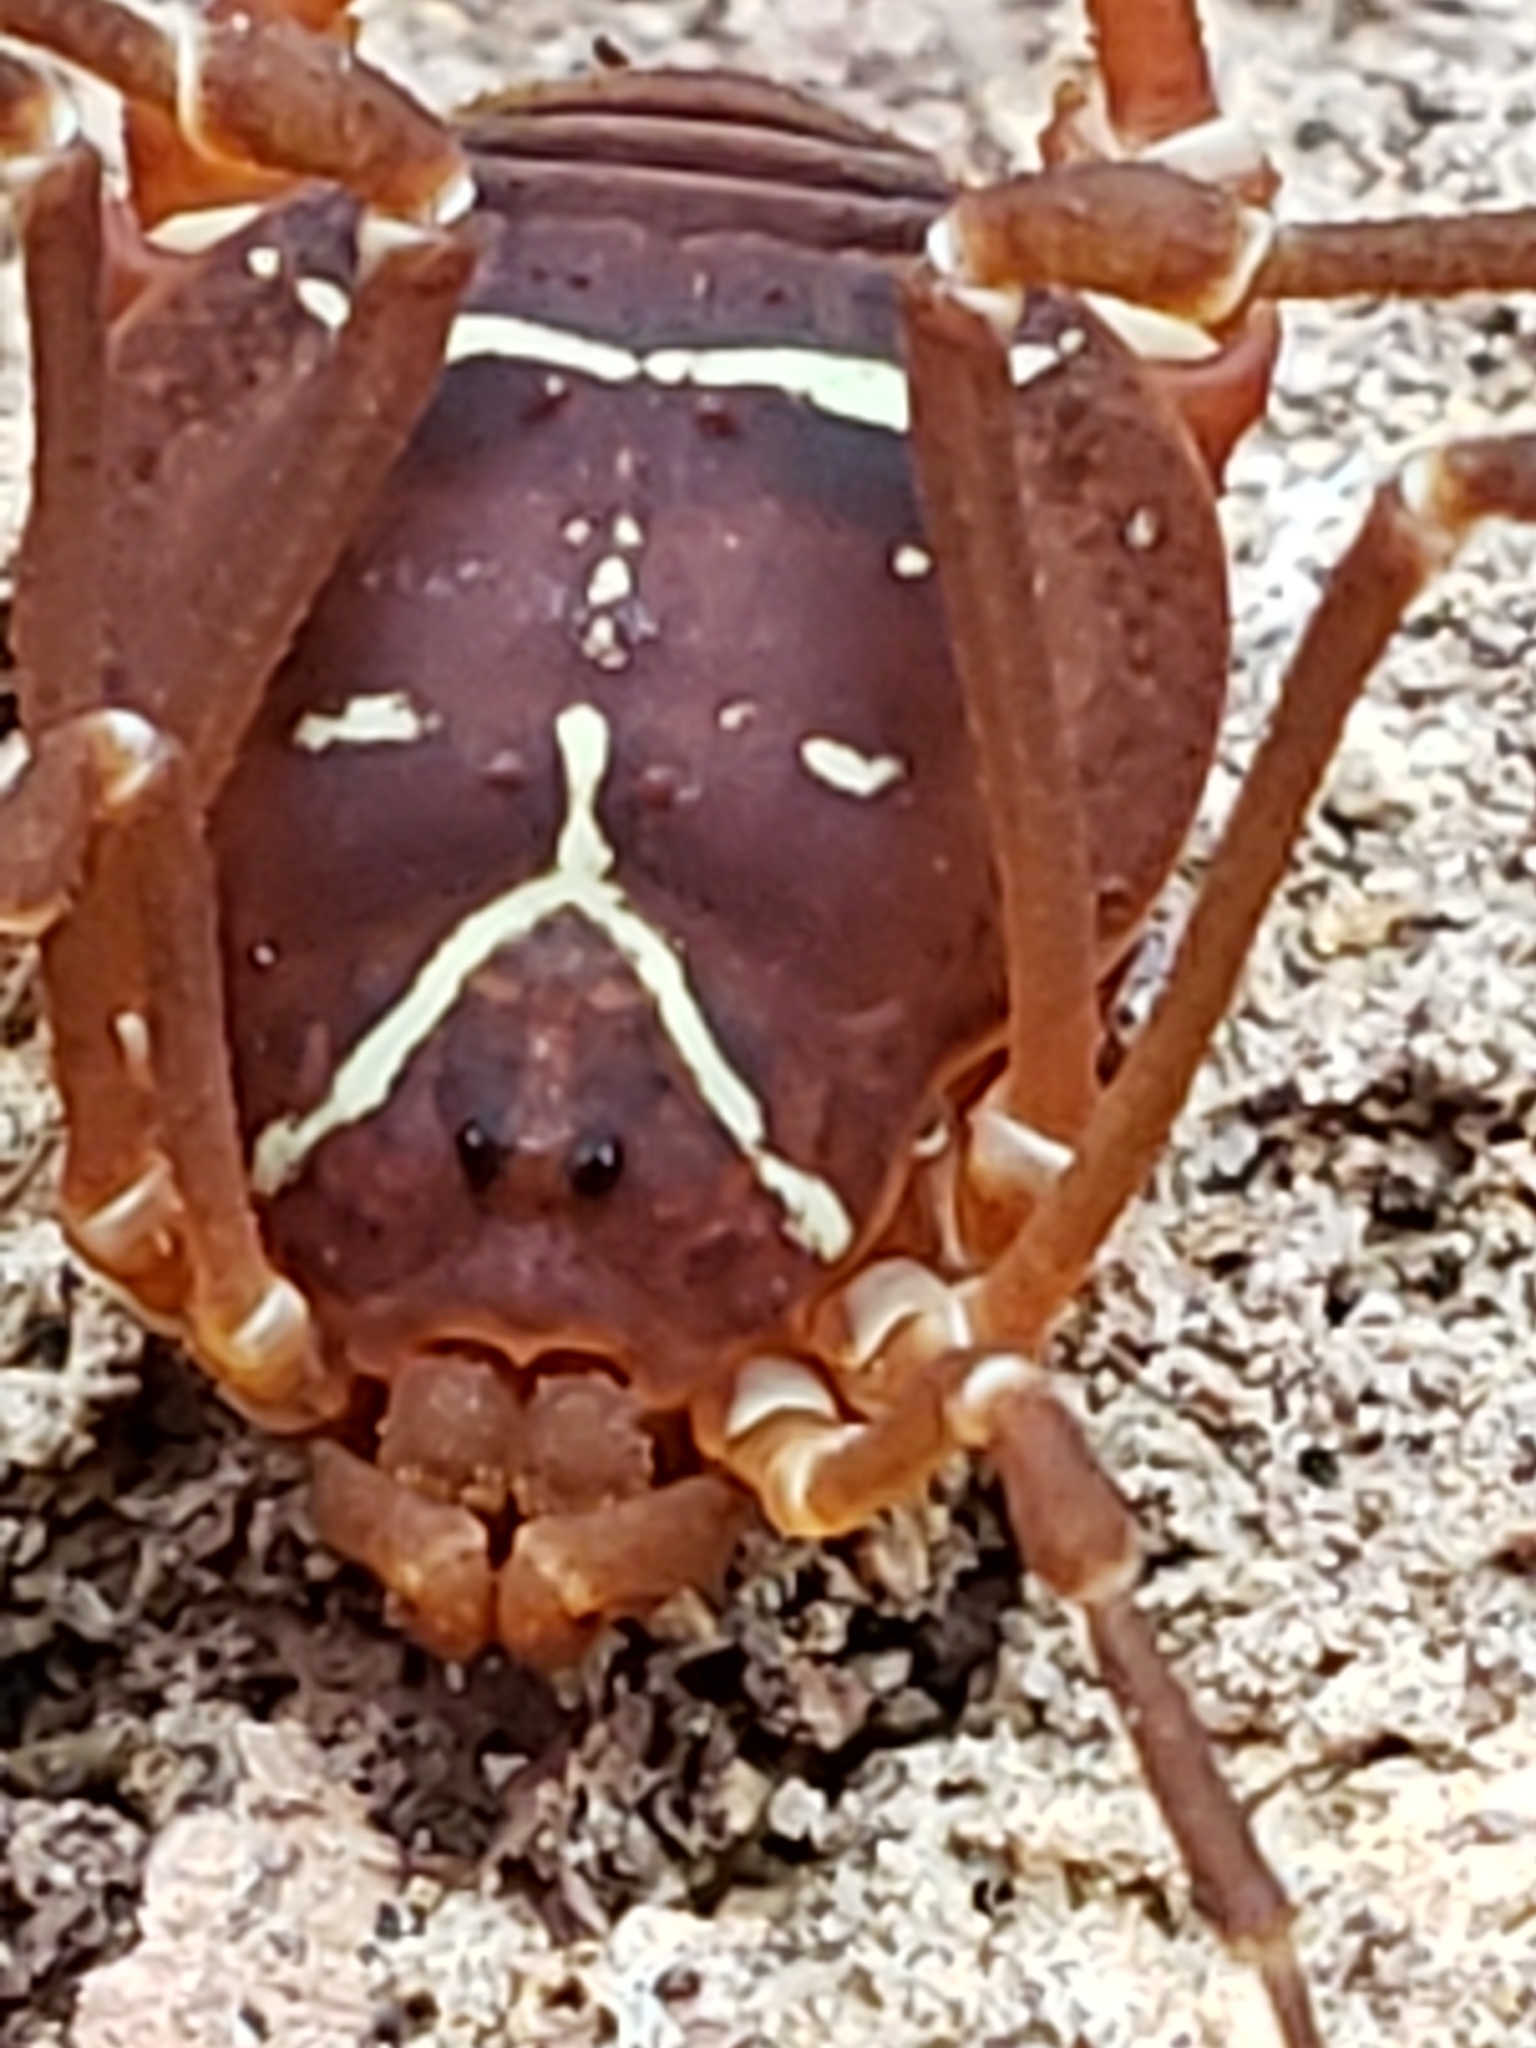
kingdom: Animalia
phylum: Arthropoda
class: Arachnida
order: Opiliones
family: Cosmetidae
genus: Libitioides
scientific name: Libitioides sayi
